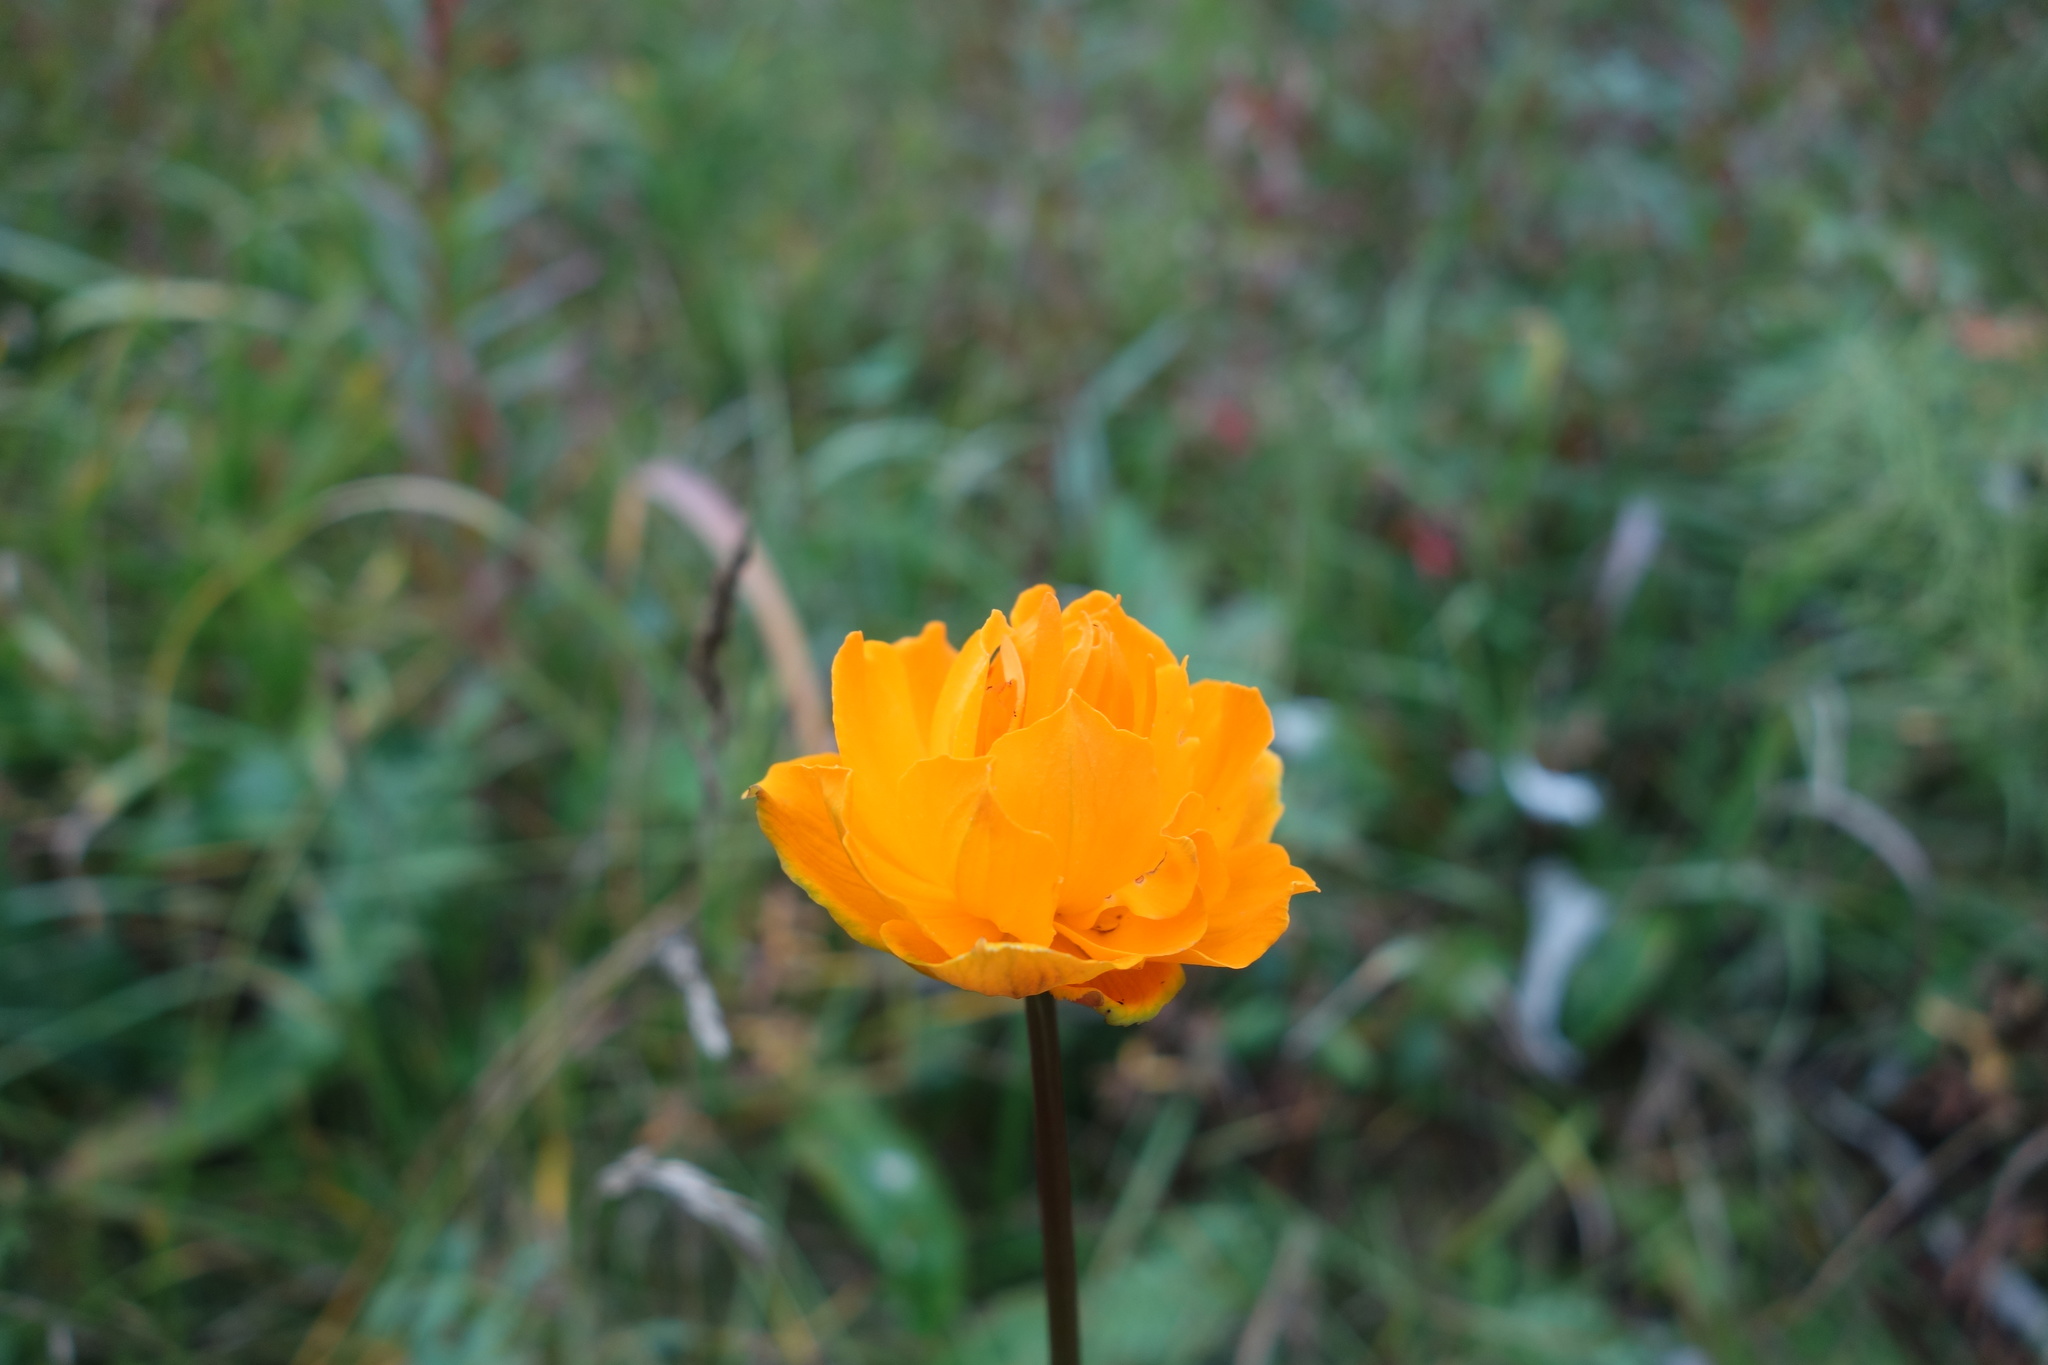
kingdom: Plantae
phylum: Tracheophyta
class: Magnoliopsida
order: Ranunculales
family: Ranunculaceae
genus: Trollius
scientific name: Trollius asiaticus
